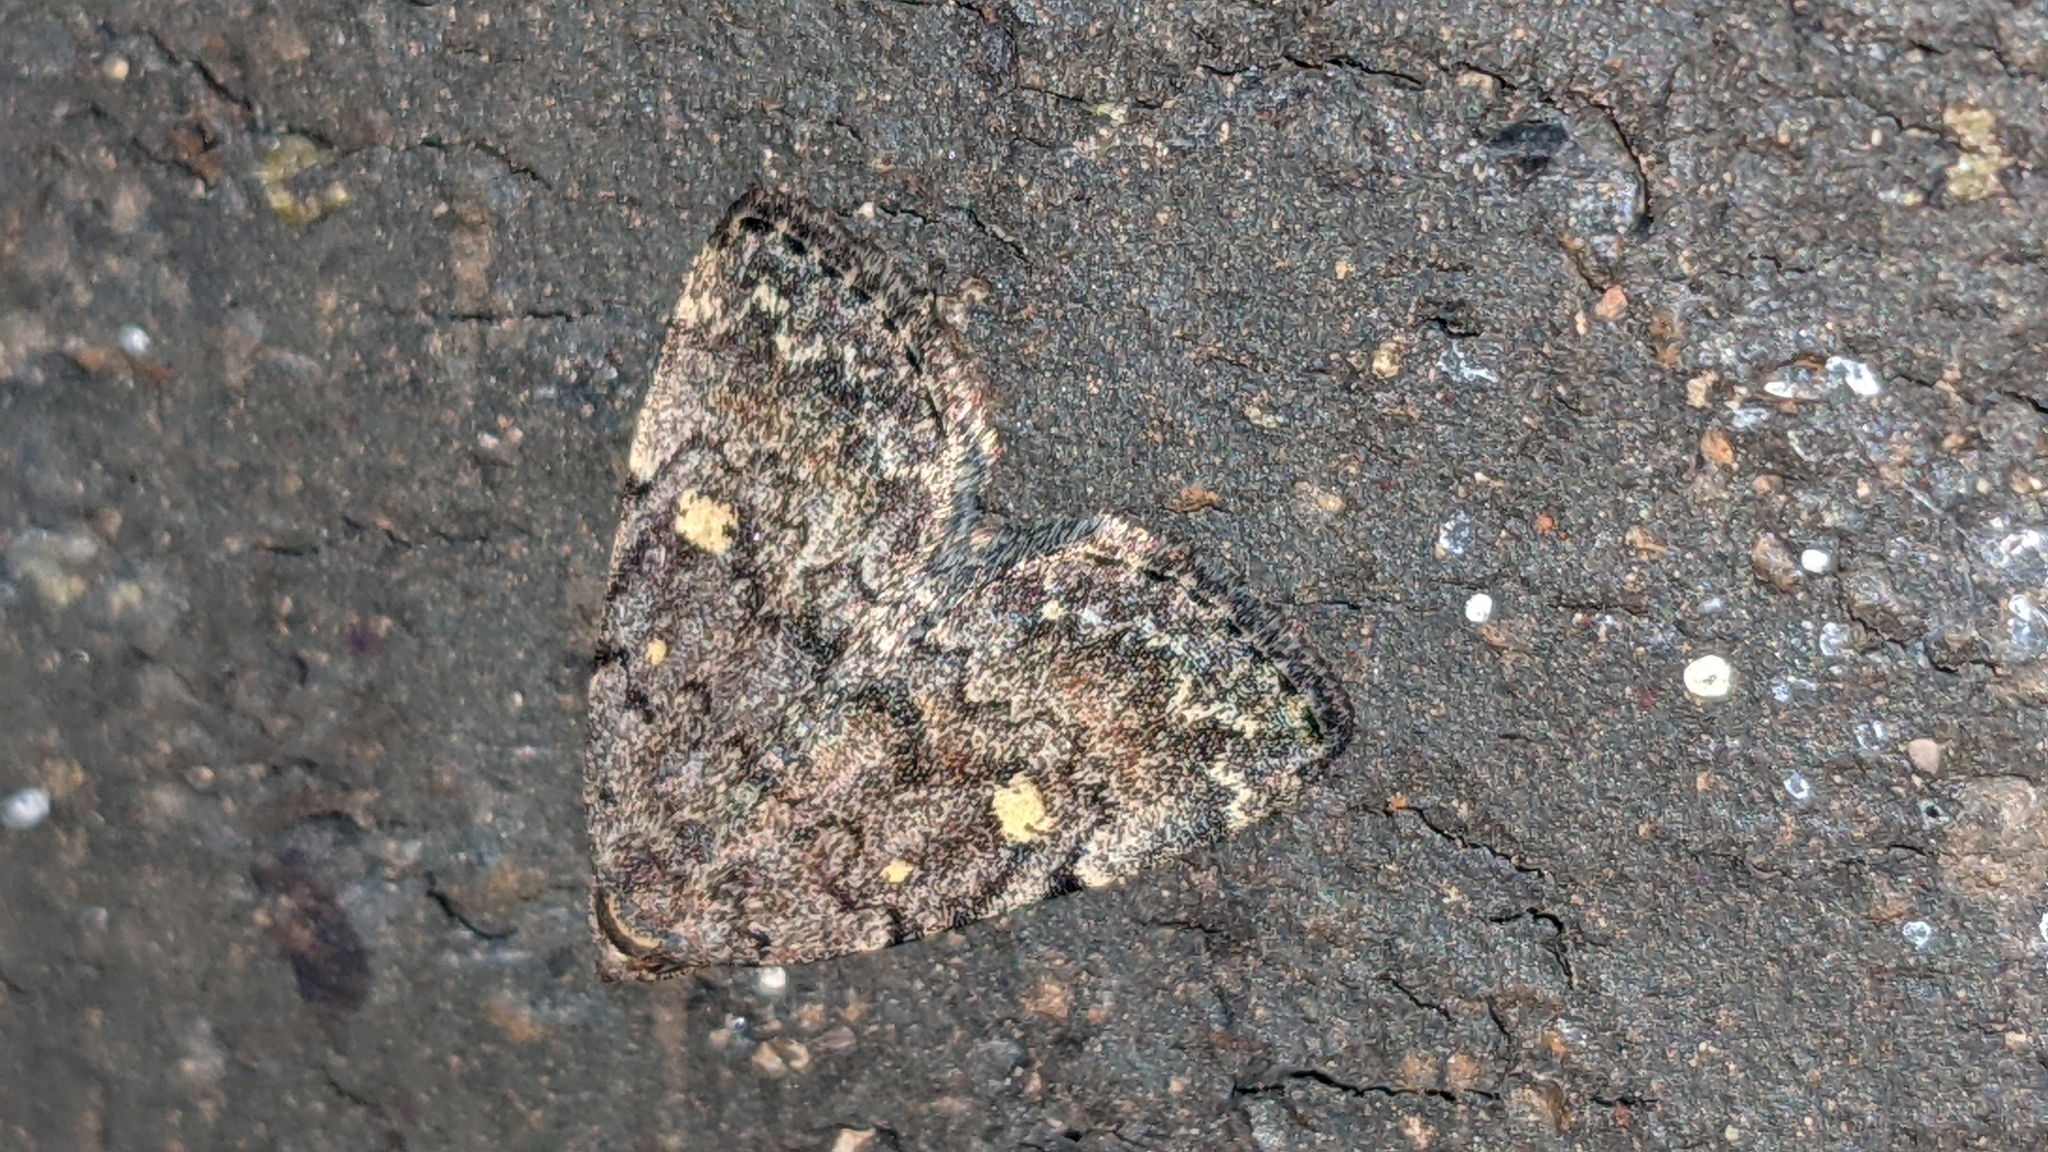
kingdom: Animalia
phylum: Arthropoda
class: Insecta
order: Lepidoptera
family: Erebidae
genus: Idia
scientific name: Idia aemula
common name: Common idia moth
